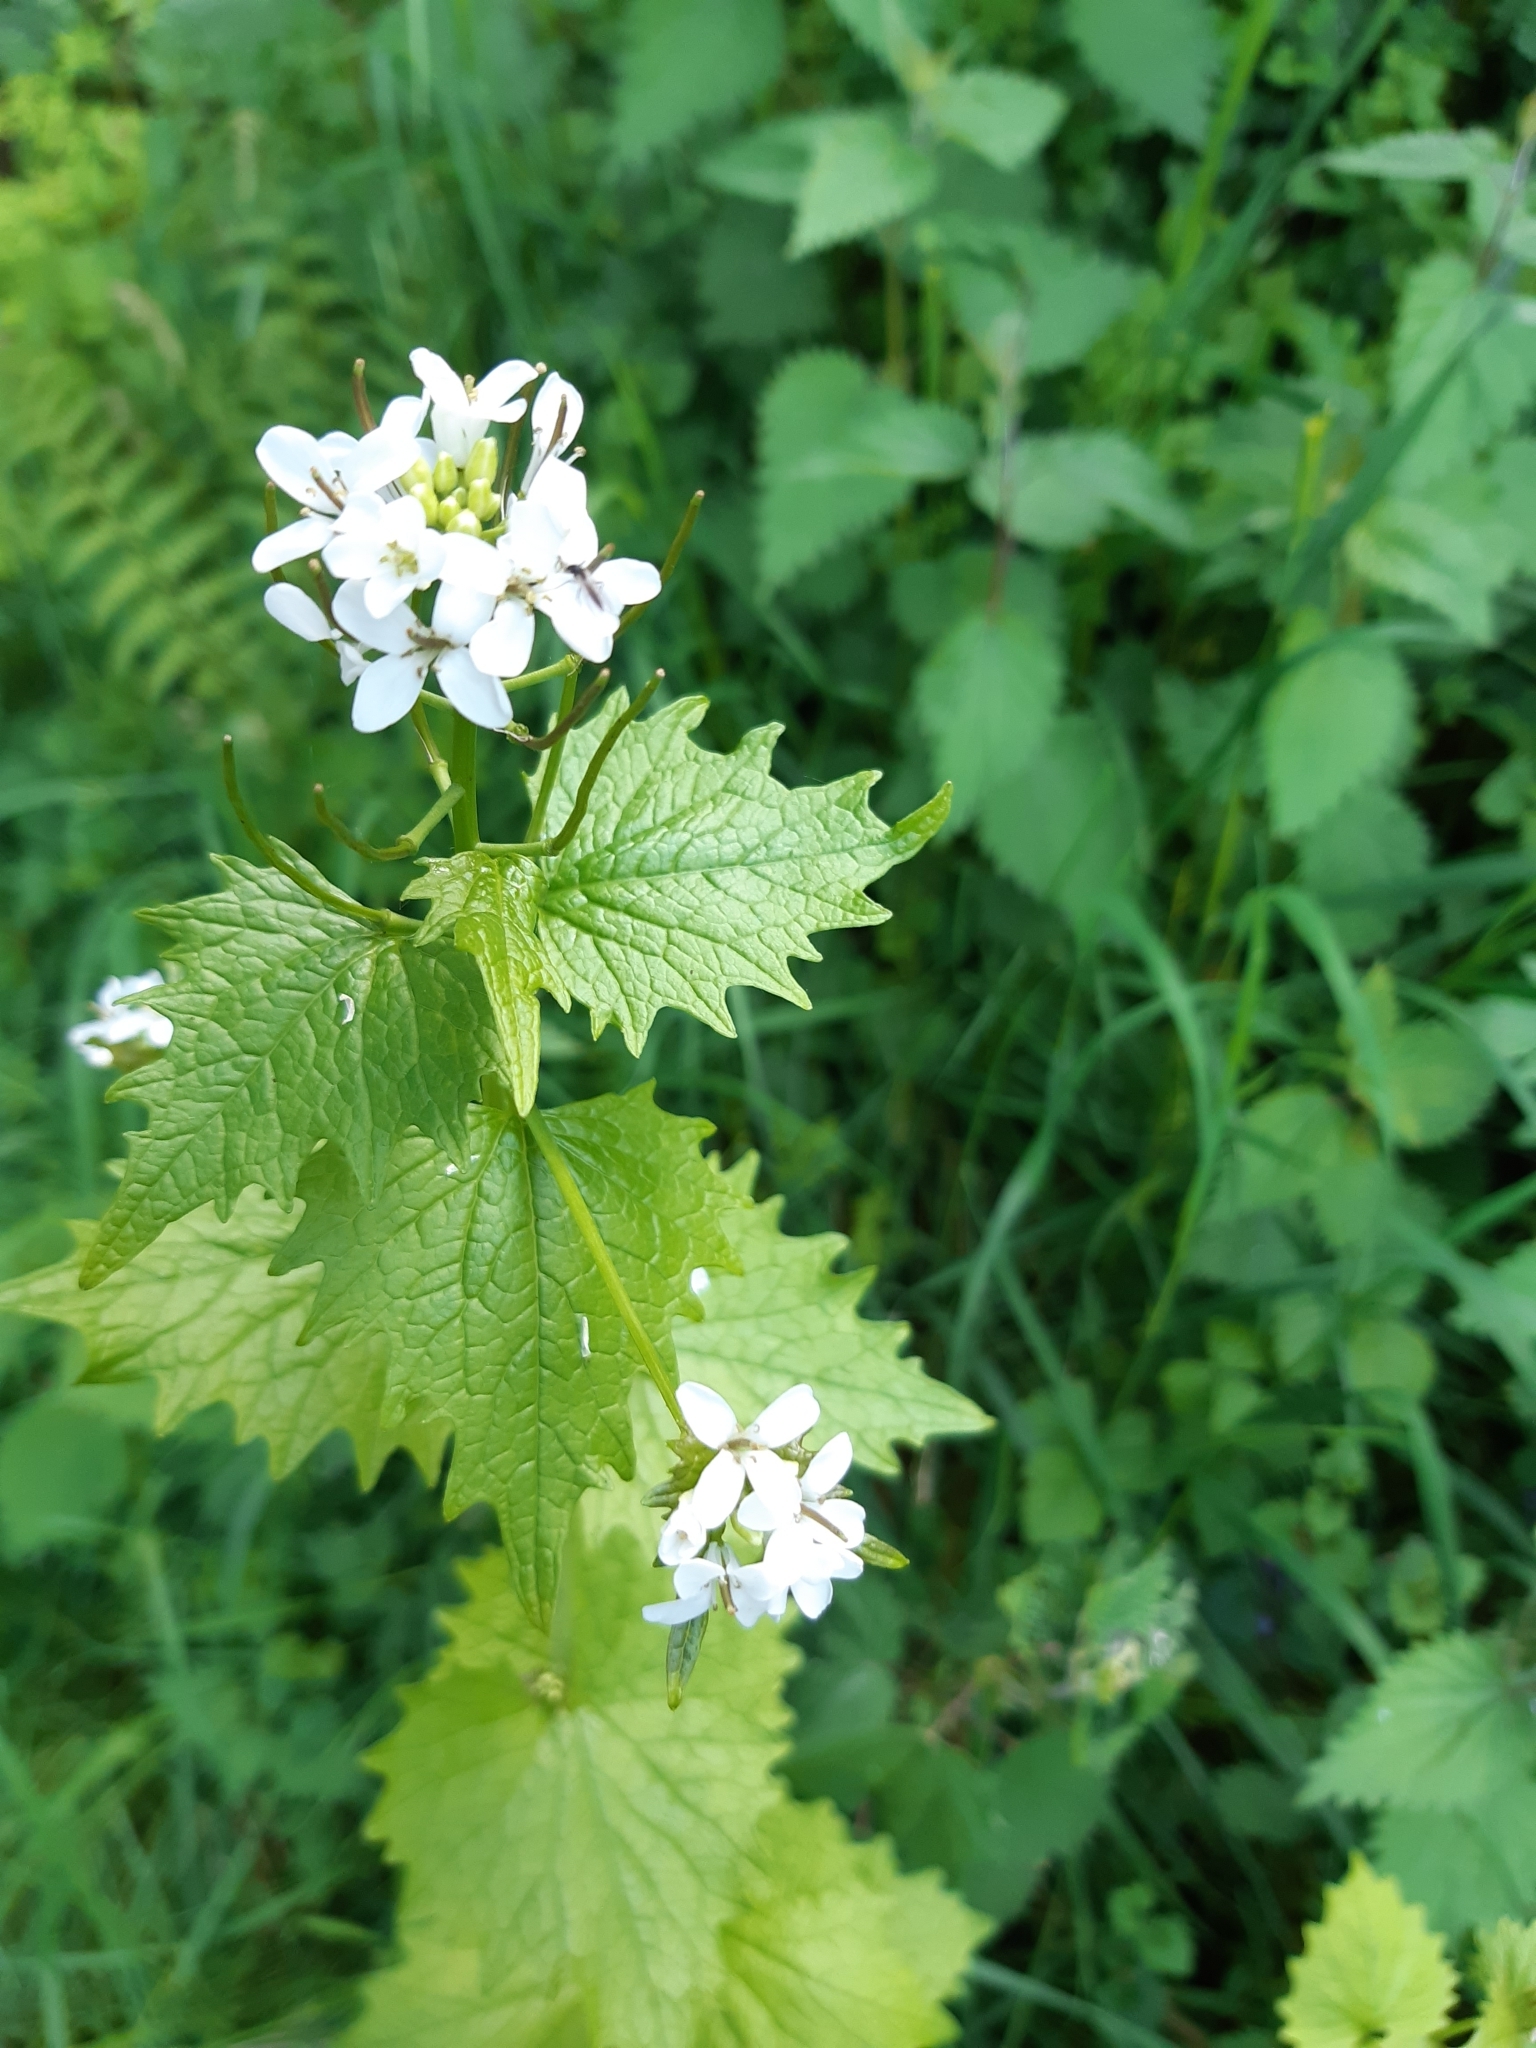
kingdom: Plantae
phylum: Tracheophyta
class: Magnoliopsida
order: Brassicales
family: Brassicaceae
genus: Alliaria
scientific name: Alliaria petiolata
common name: Garlic mustard
